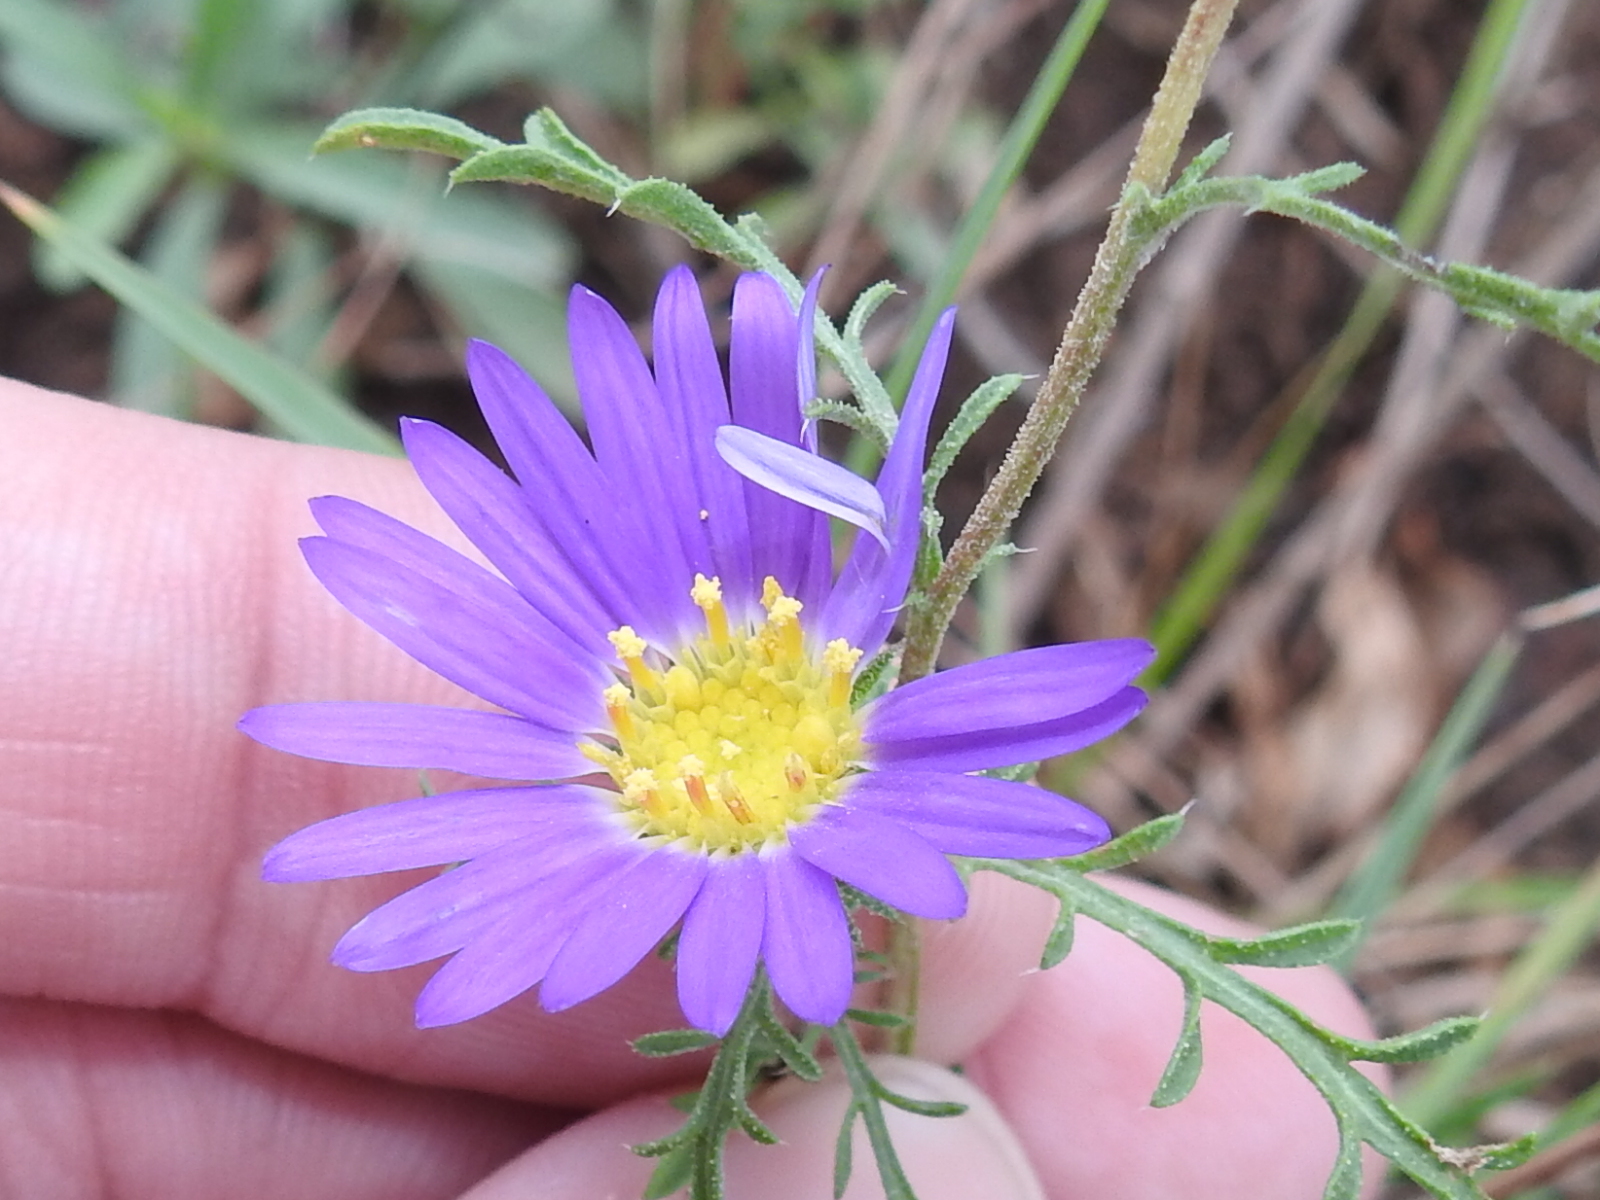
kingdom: Plantae
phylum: Tracheophyta
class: Magnoliopsida
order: Asterales
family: Asteraceae
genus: Machaeranthera
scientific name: Machaeranthera tanacetifolia
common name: Tansy-aster
